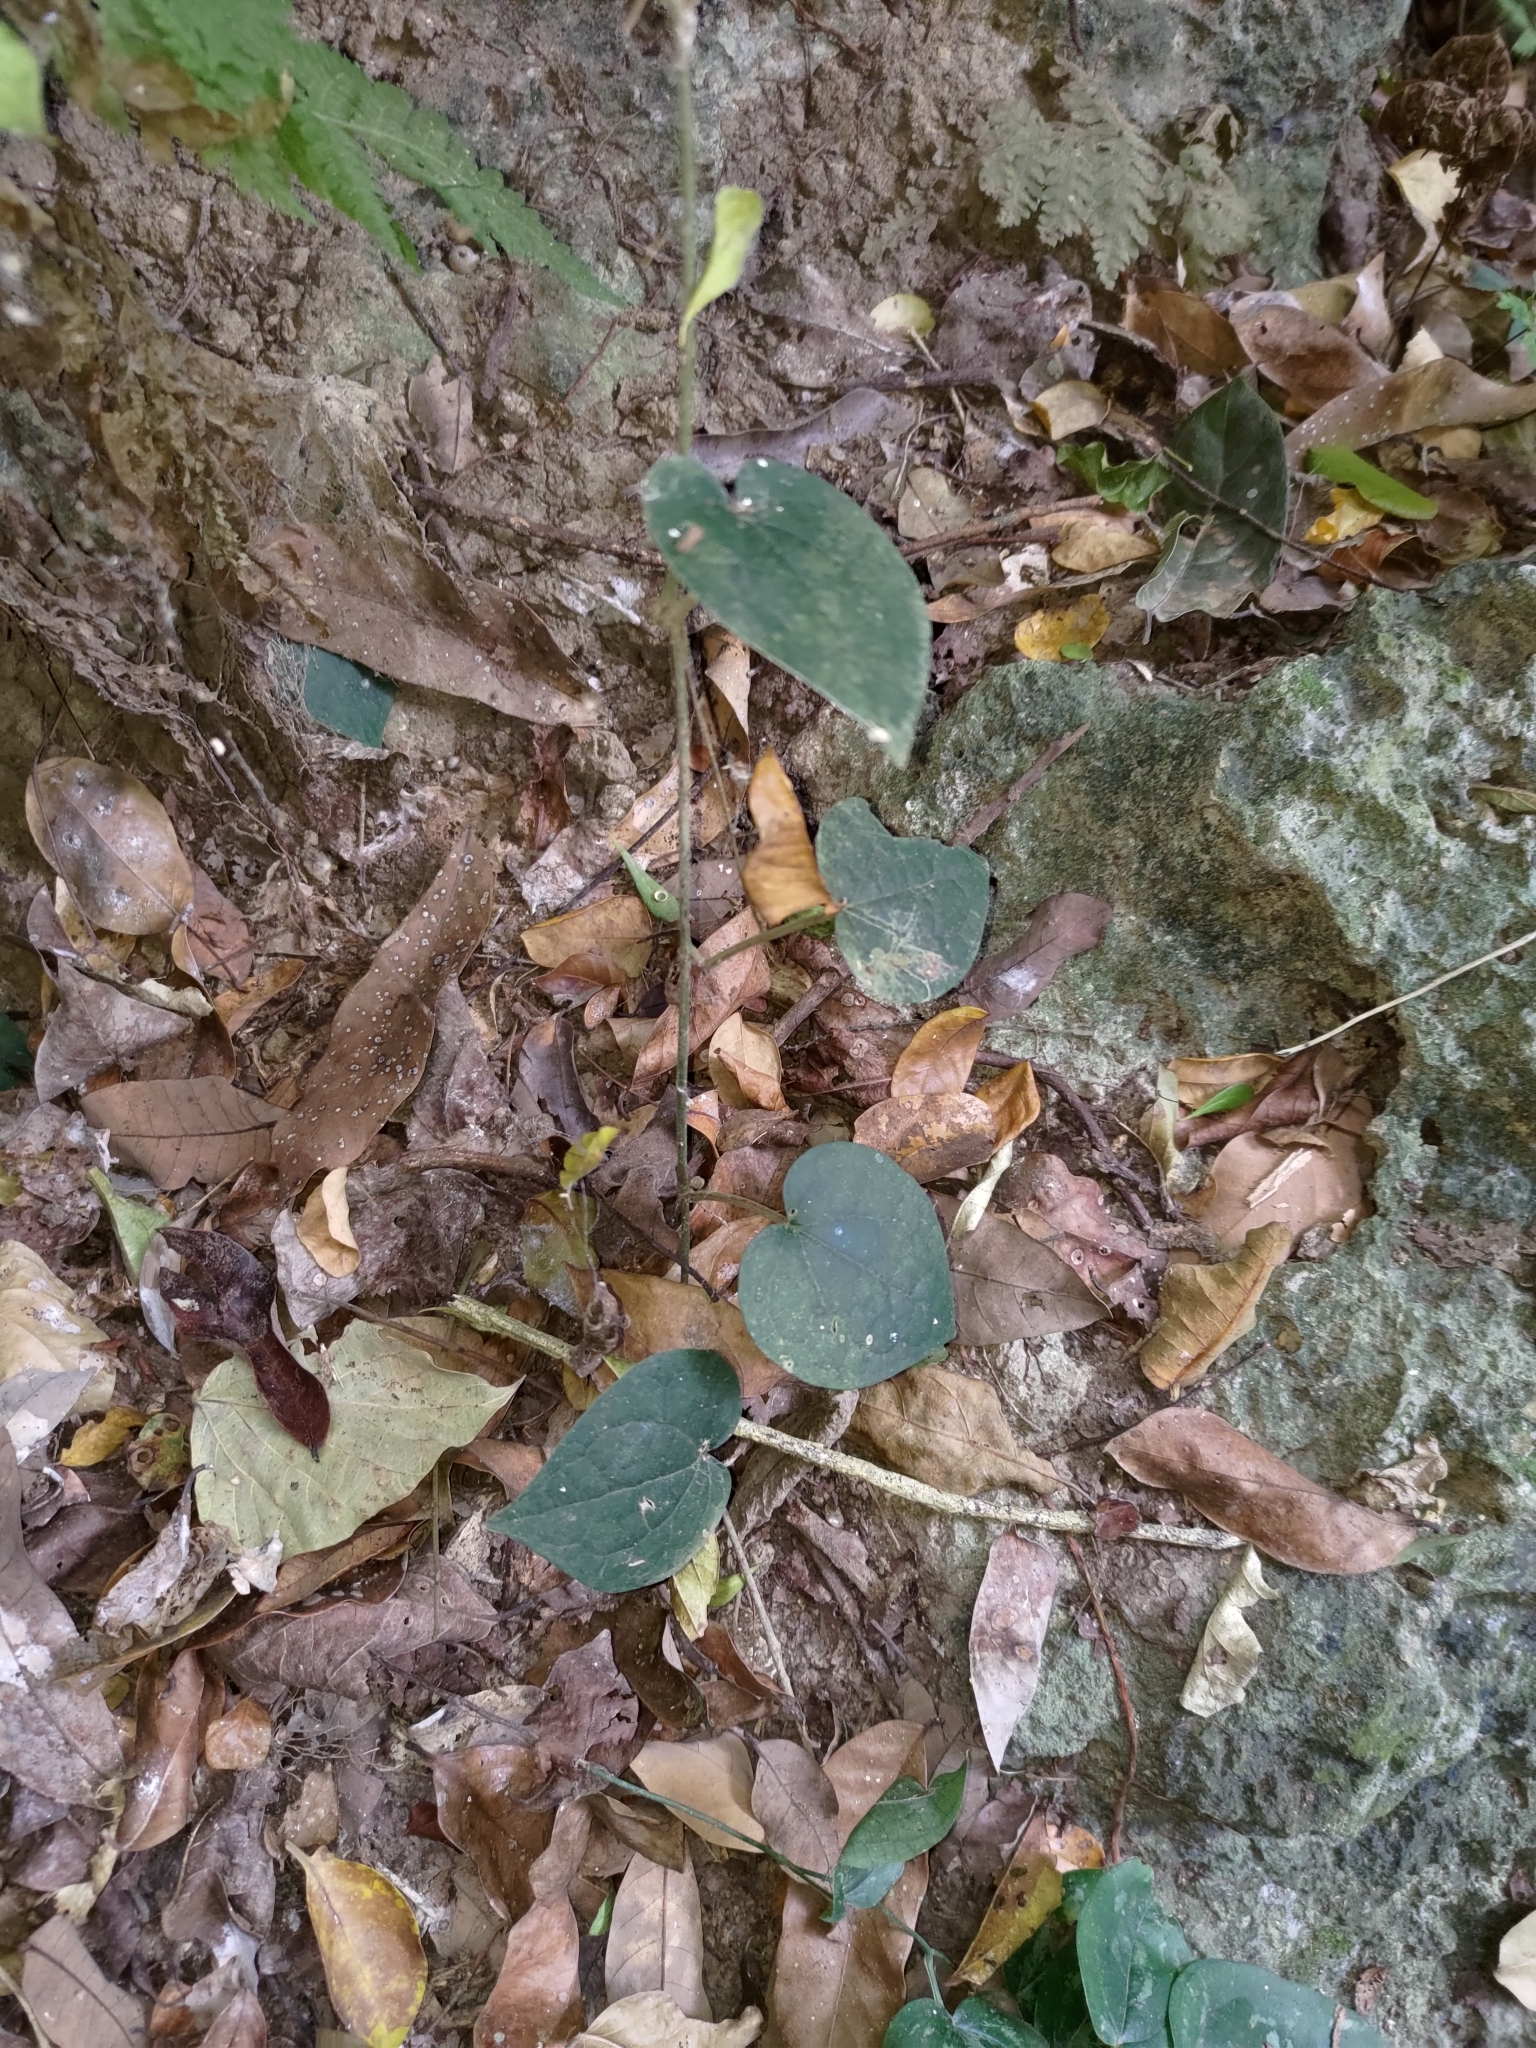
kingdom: Plantae
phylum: Tracheophyta
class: Magnoliopsida
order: Piperales
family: Piperaceae
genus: Piper
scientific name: Piper kadsura
